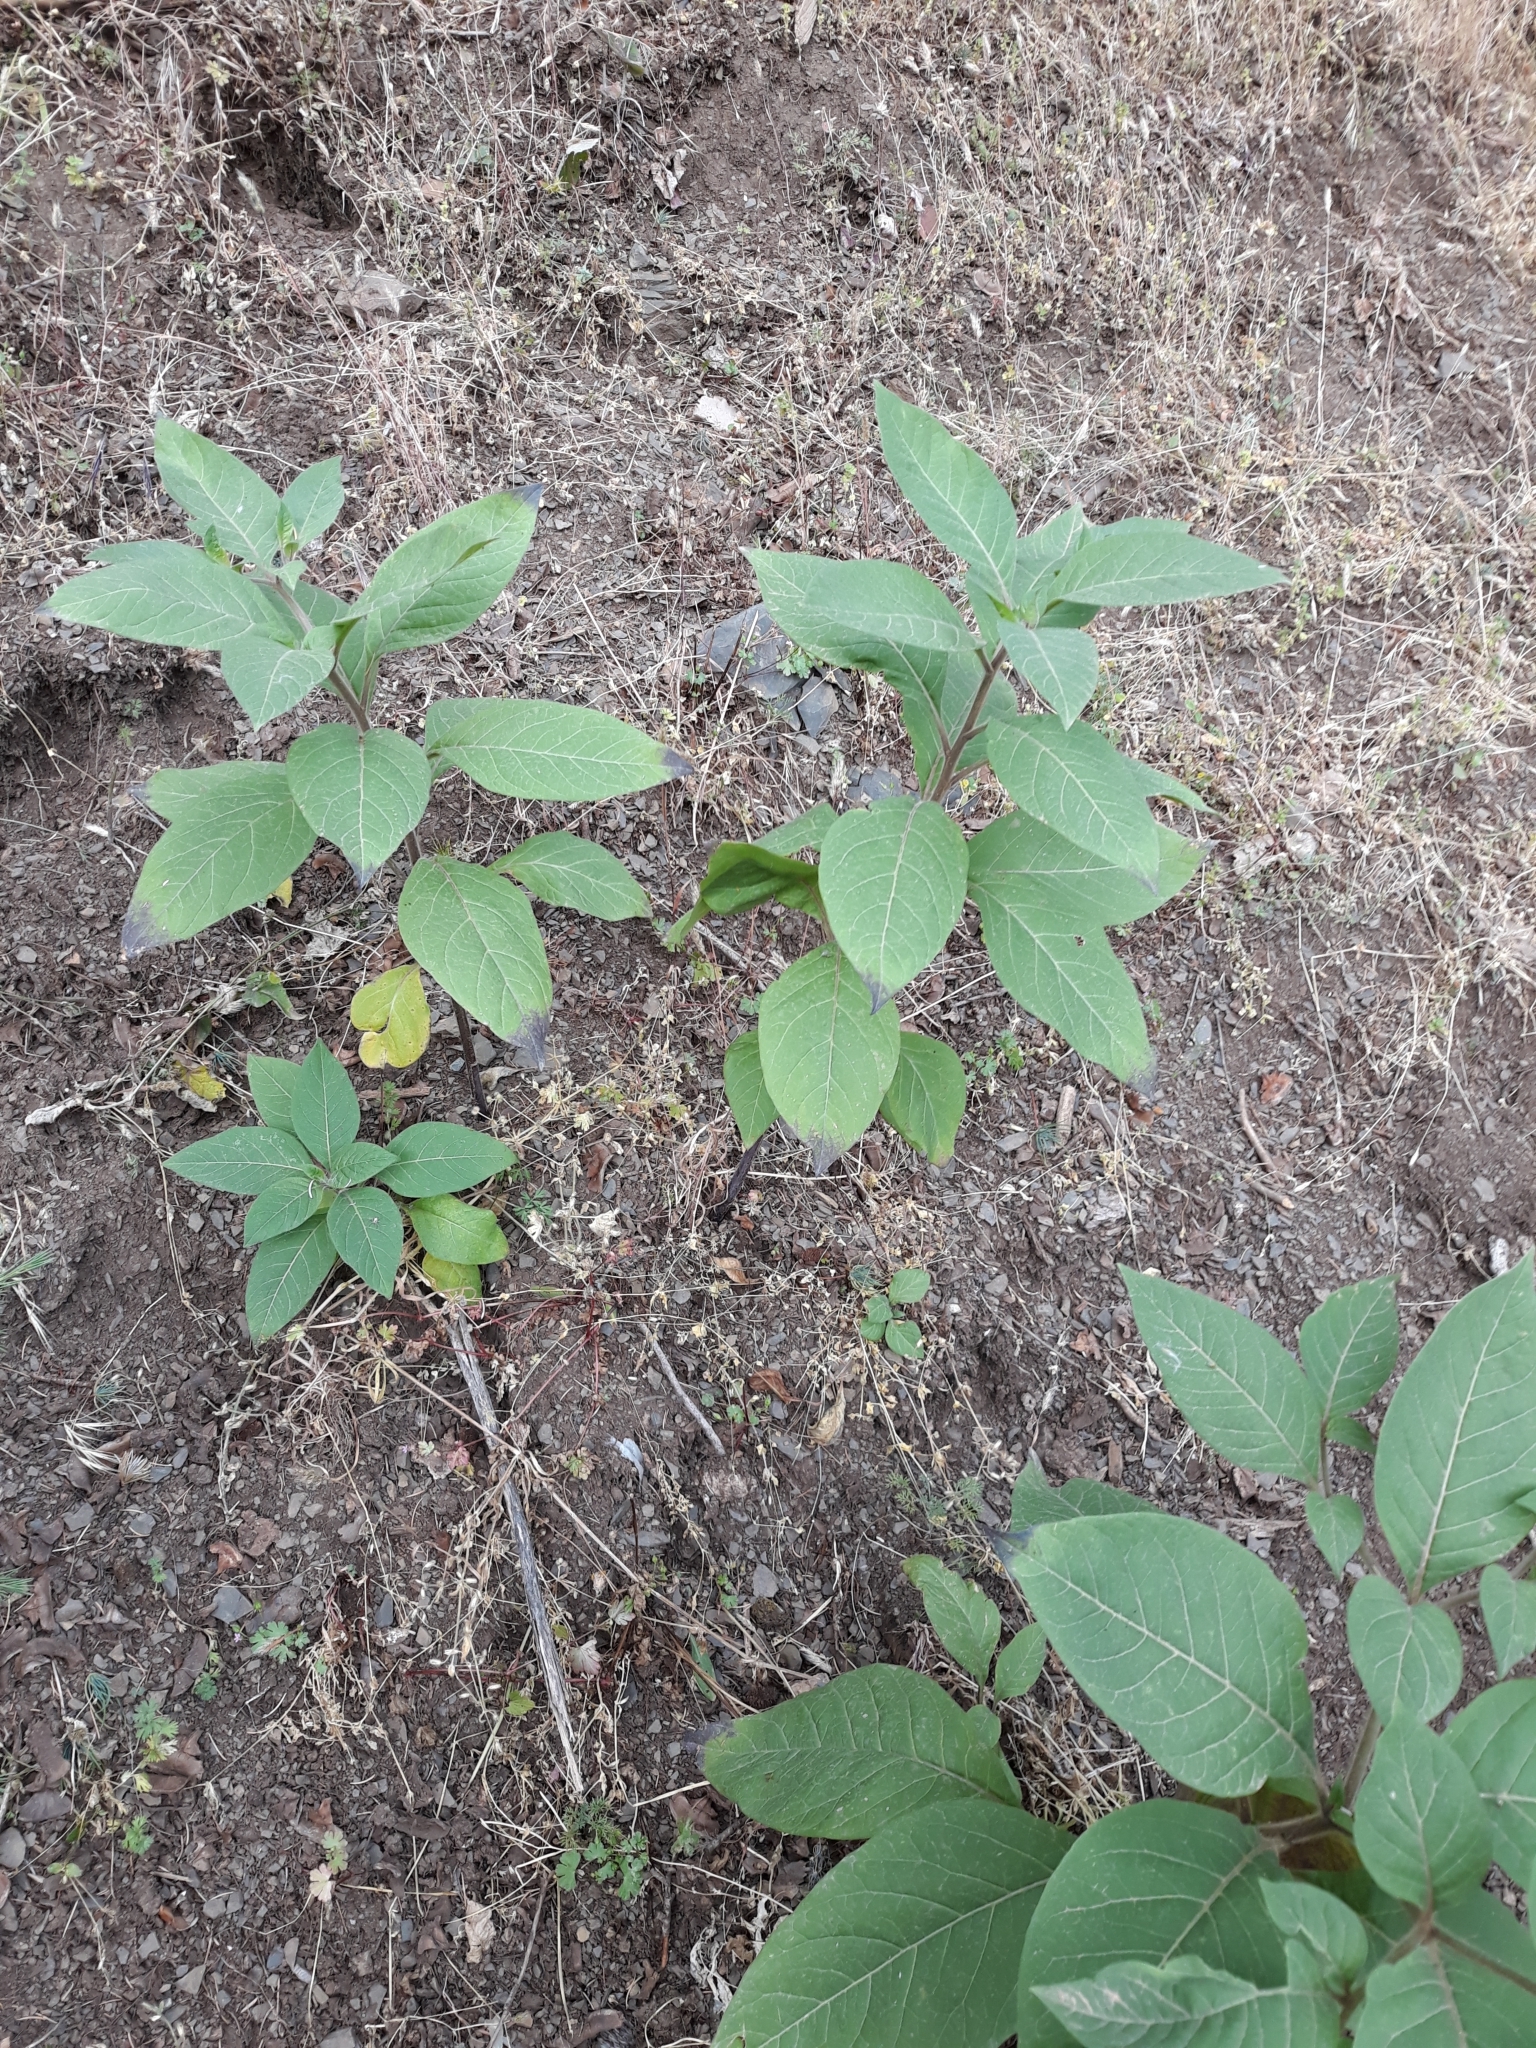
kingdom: Plantae
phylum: Tracheophyta
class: Magnoliopsida
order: Solanales
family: Solanaceae
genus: Atropa
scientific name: Atropa belladonna
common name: Deadly nightshade
